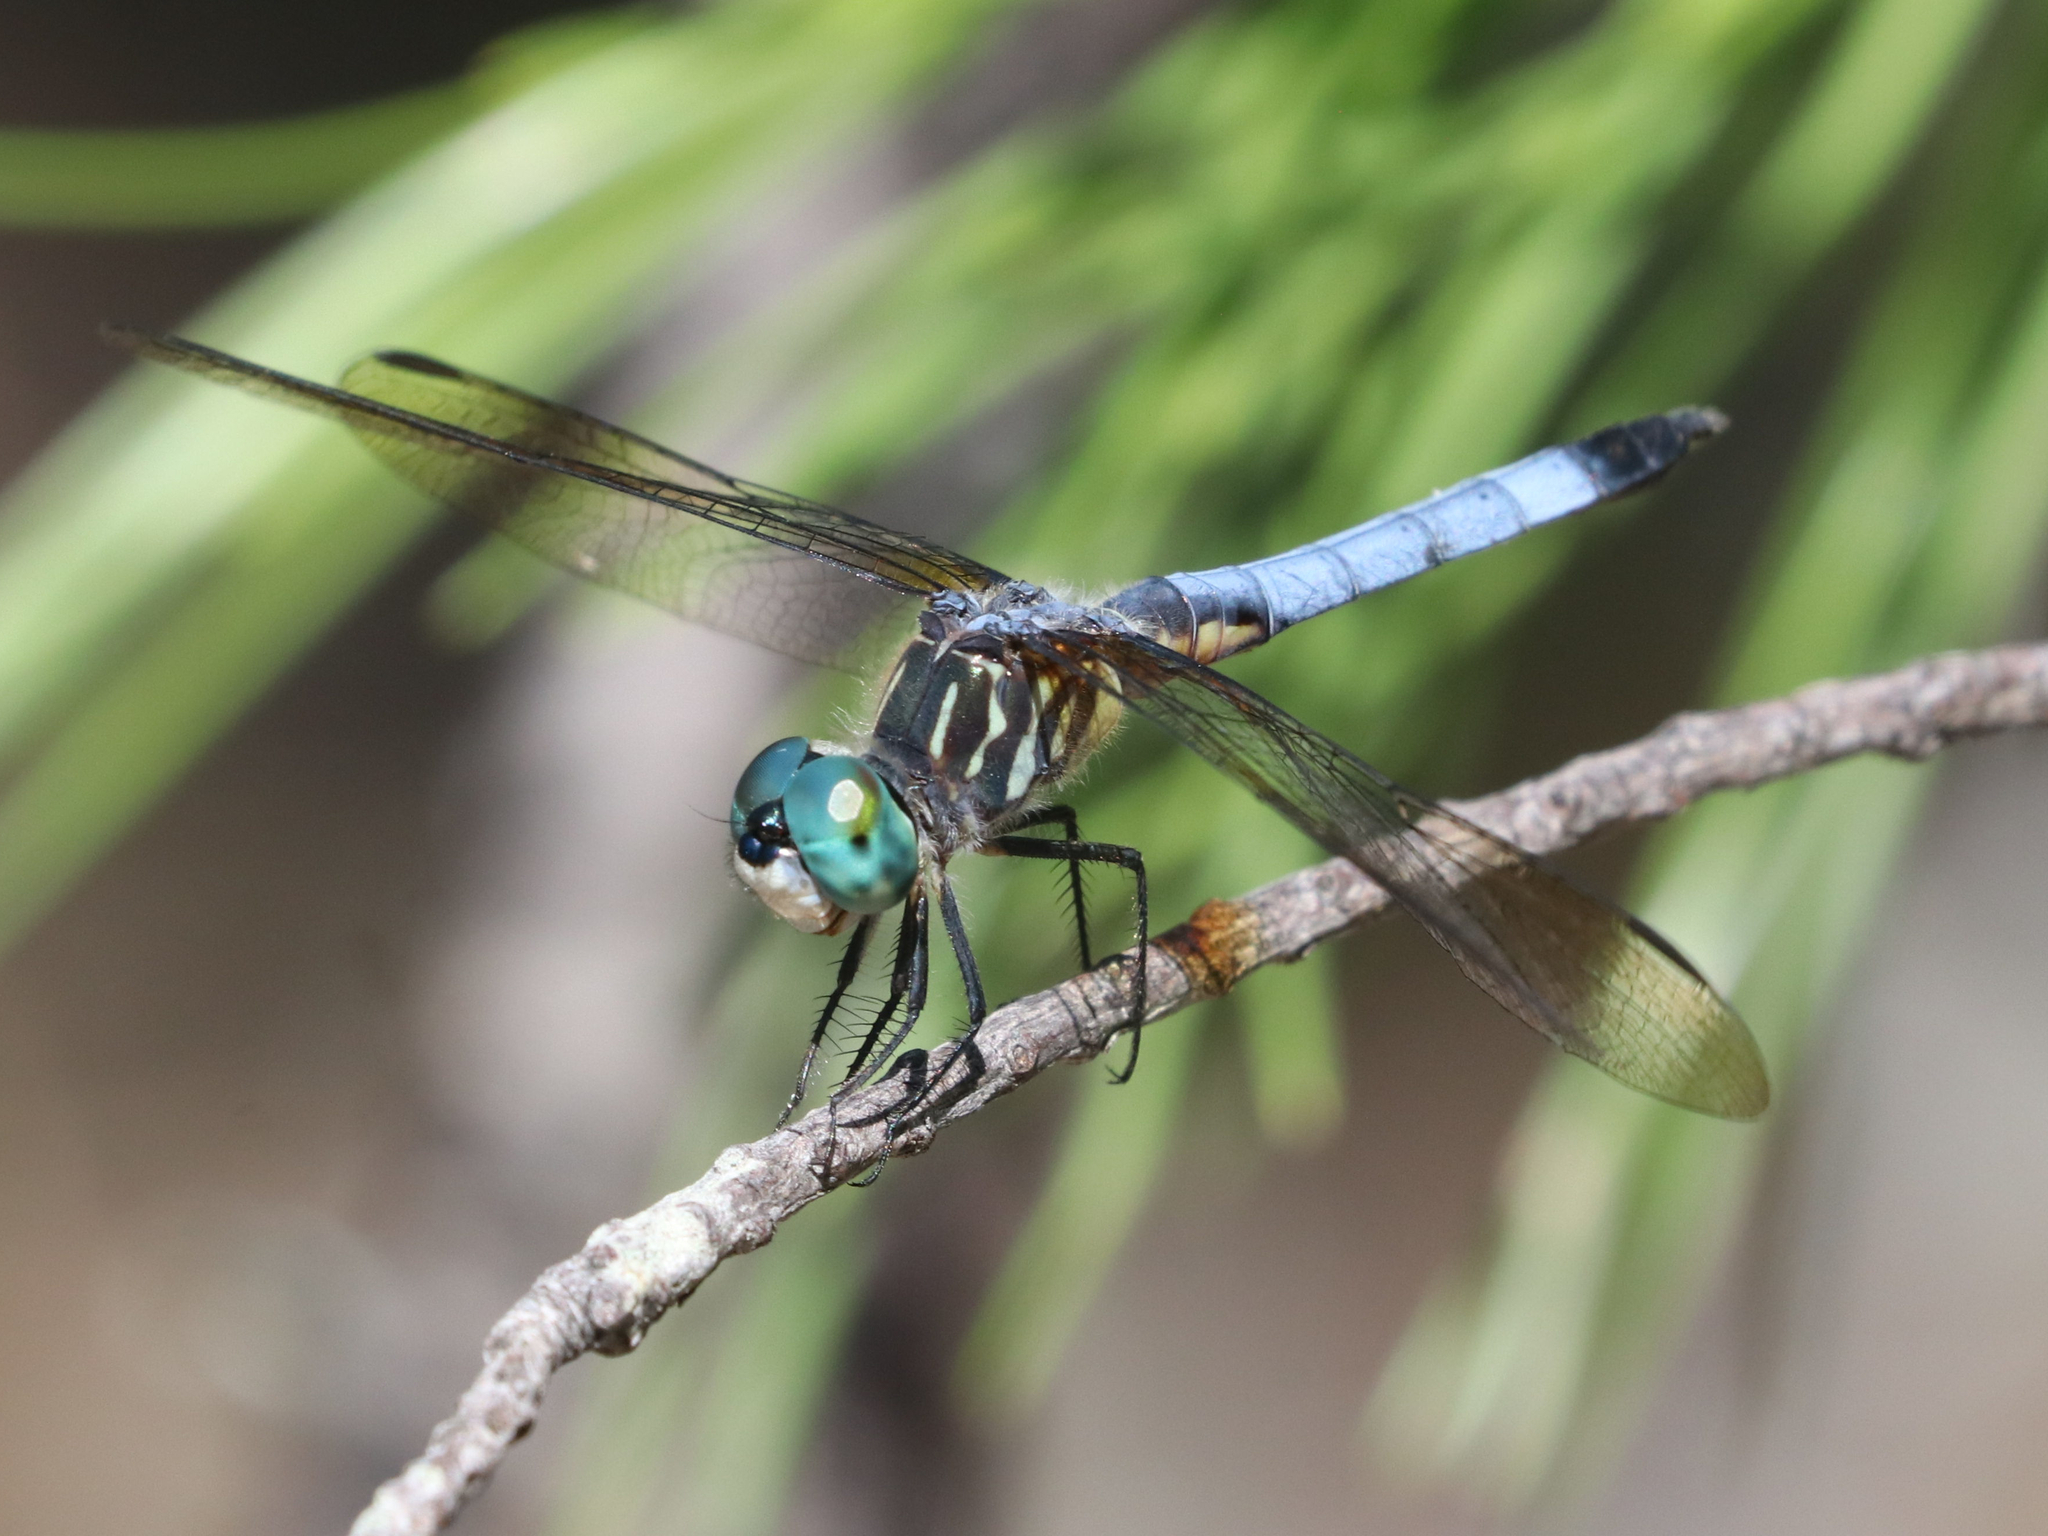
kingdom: Animalia
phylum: Arthropoda
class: Insecta
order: Odonata
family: Libellulidae
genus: Pachydiplax
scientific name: Pachydiplax longipennis
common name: Blue dasher
